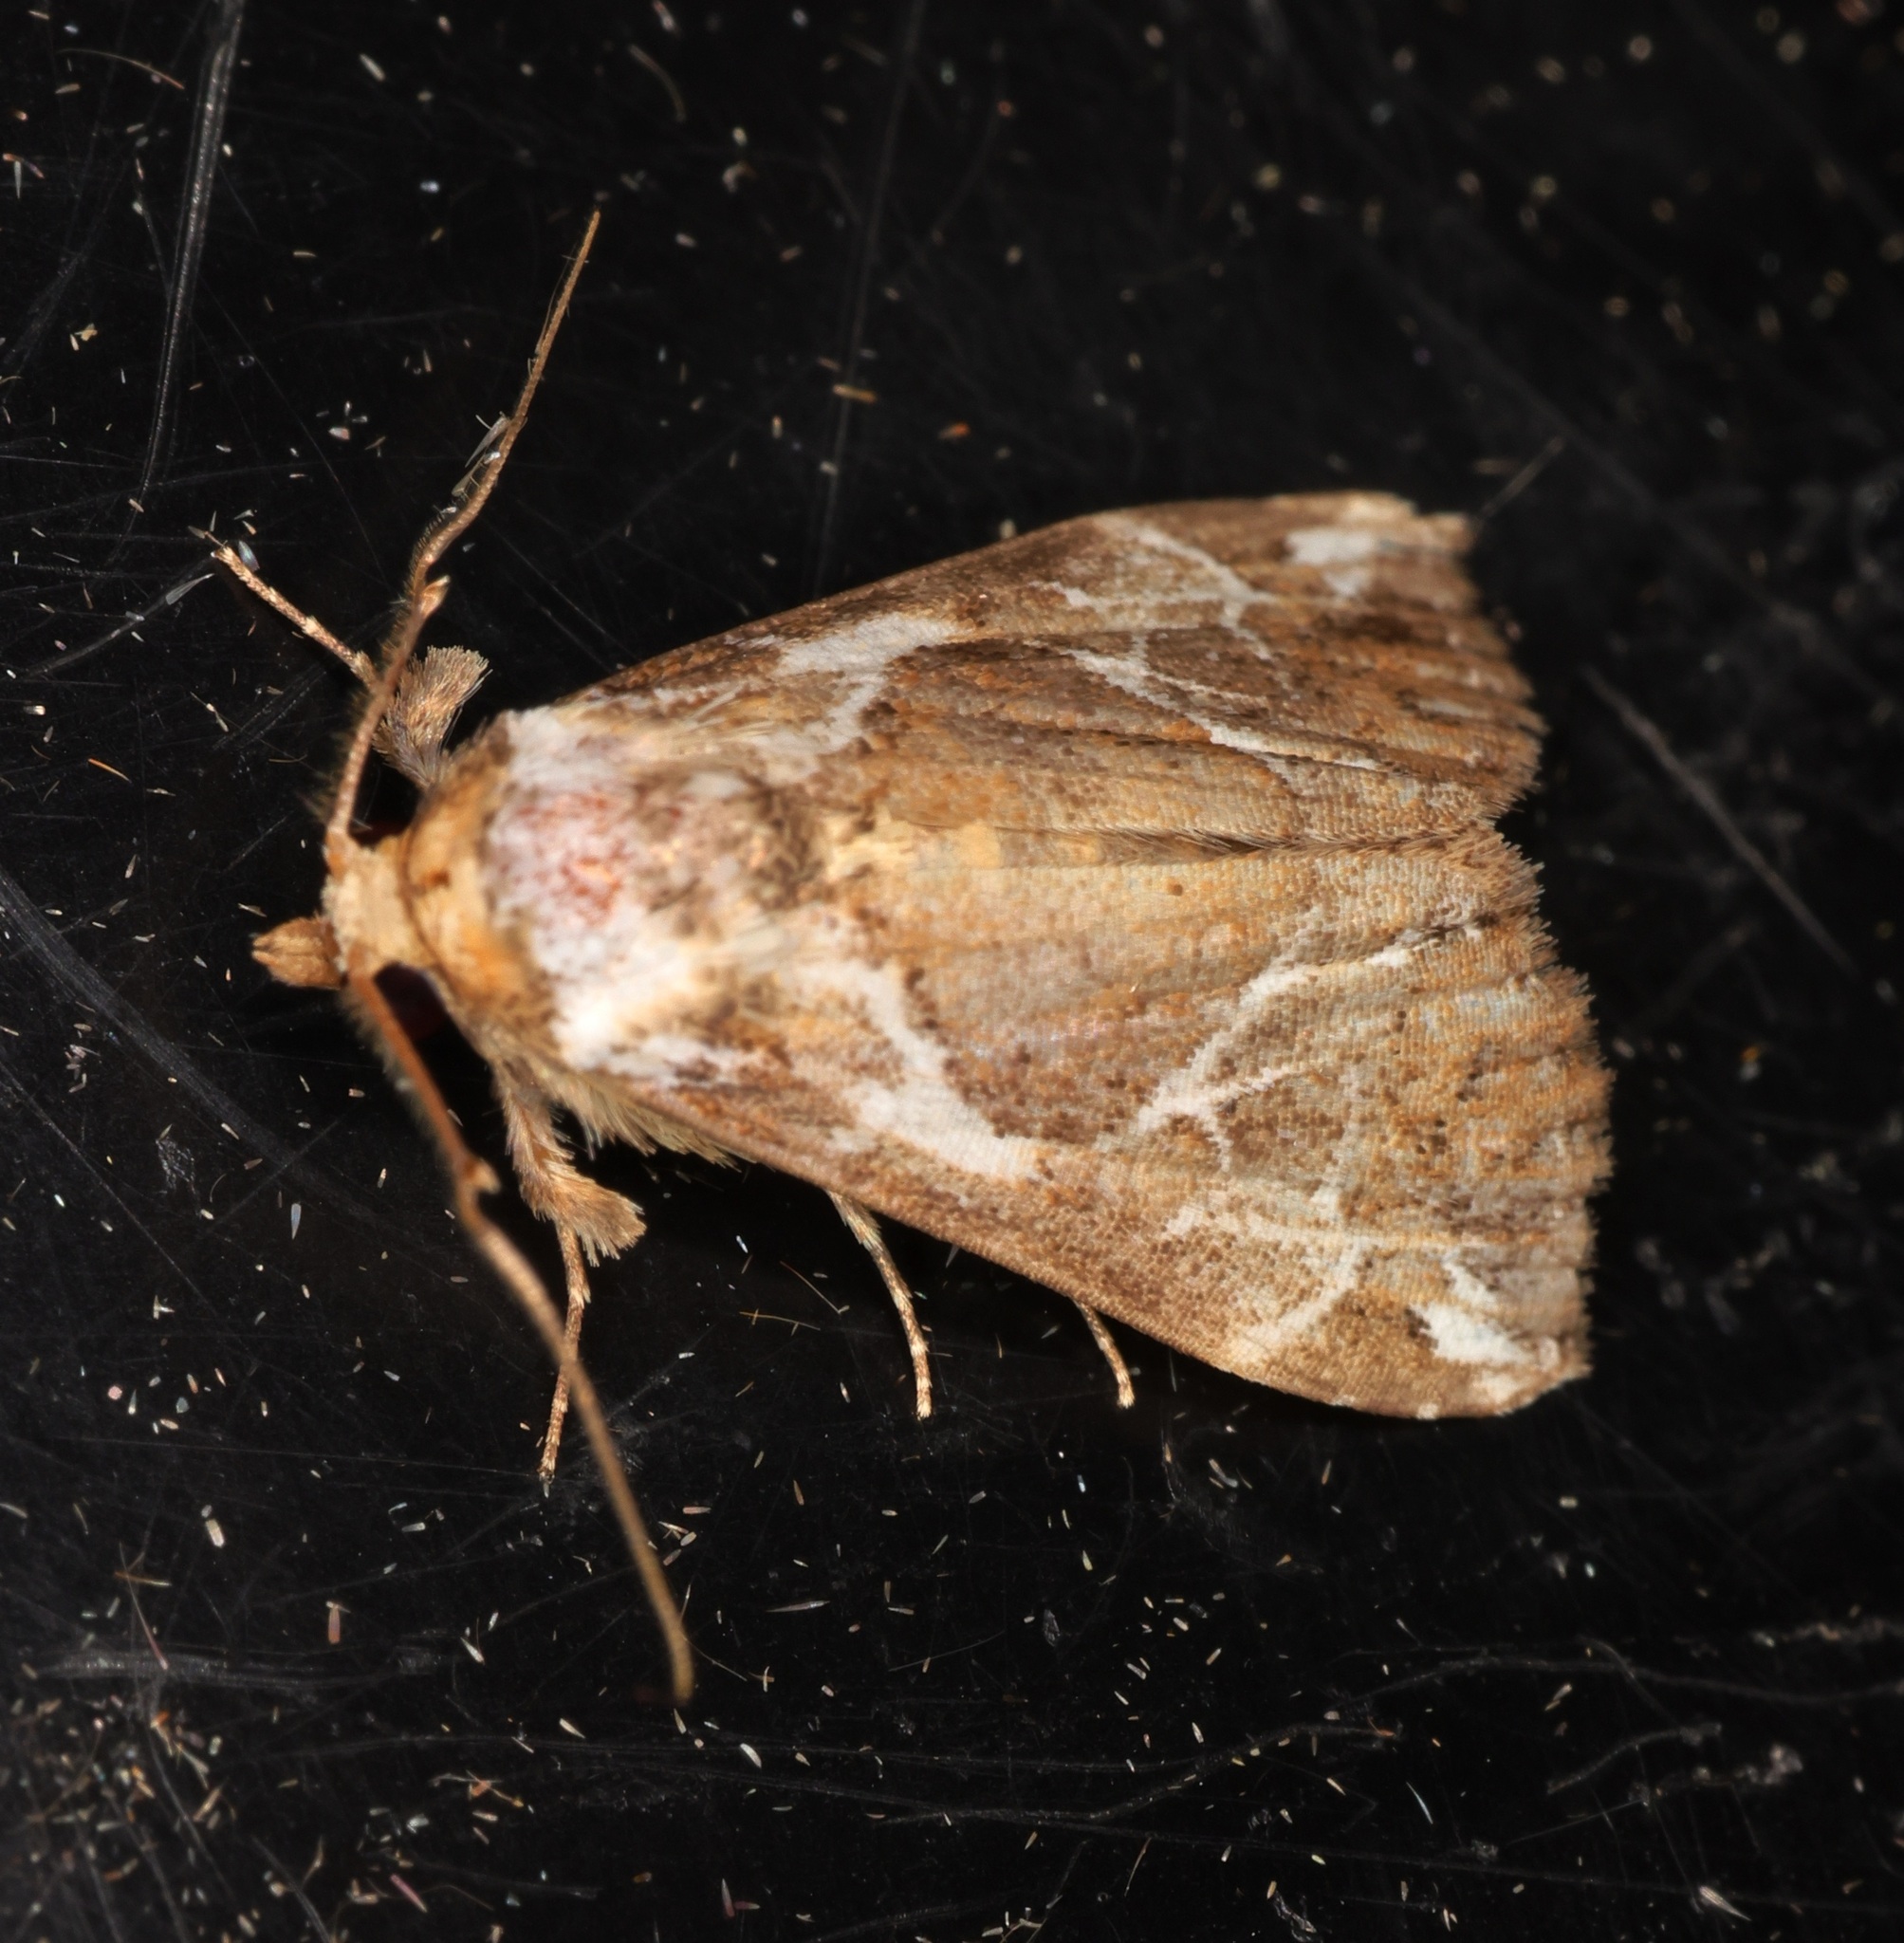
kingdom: Animalia
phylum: Arthropoda
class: Insecta
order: Lepidoptera
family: Erebidae
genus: Chorsia
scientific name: Chorsia albiscriptus
